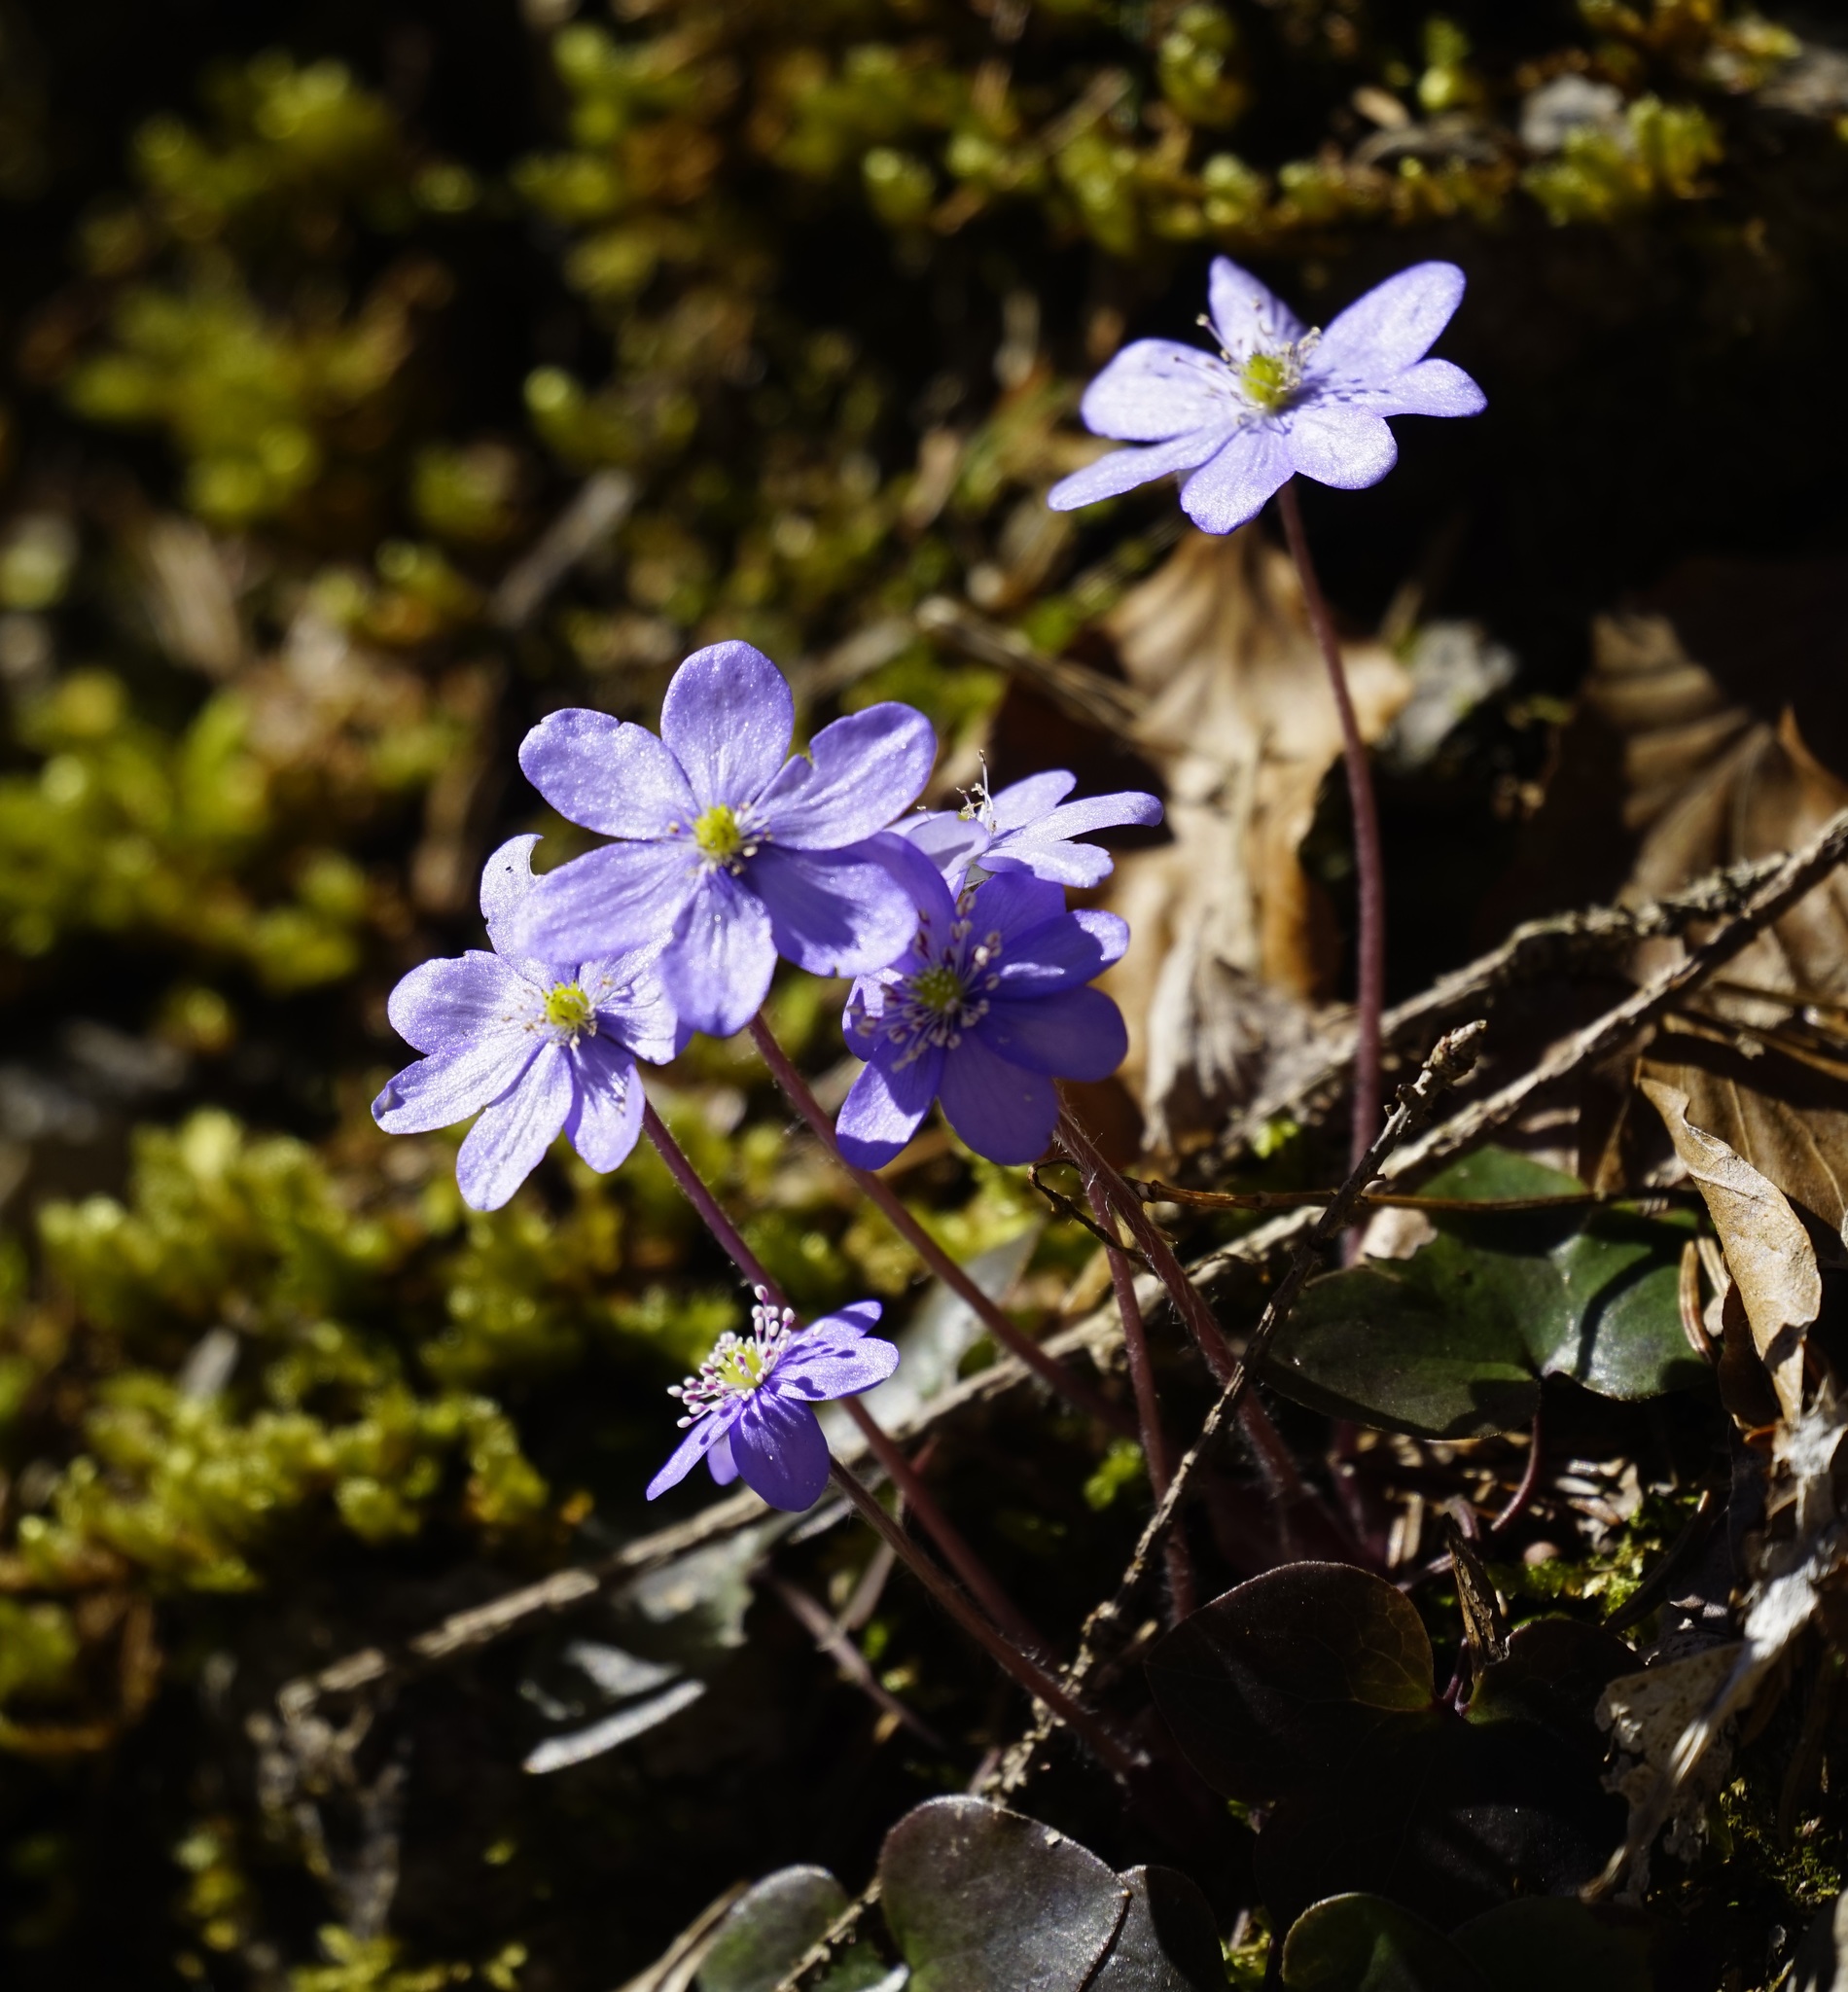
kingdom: Plantae
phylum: Tracheophyta
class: Magnoliopsida
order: Ranunculales
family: Ranunculaceae
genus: Hepatica
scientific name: Hepatica nobilis
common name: Liverleaf
